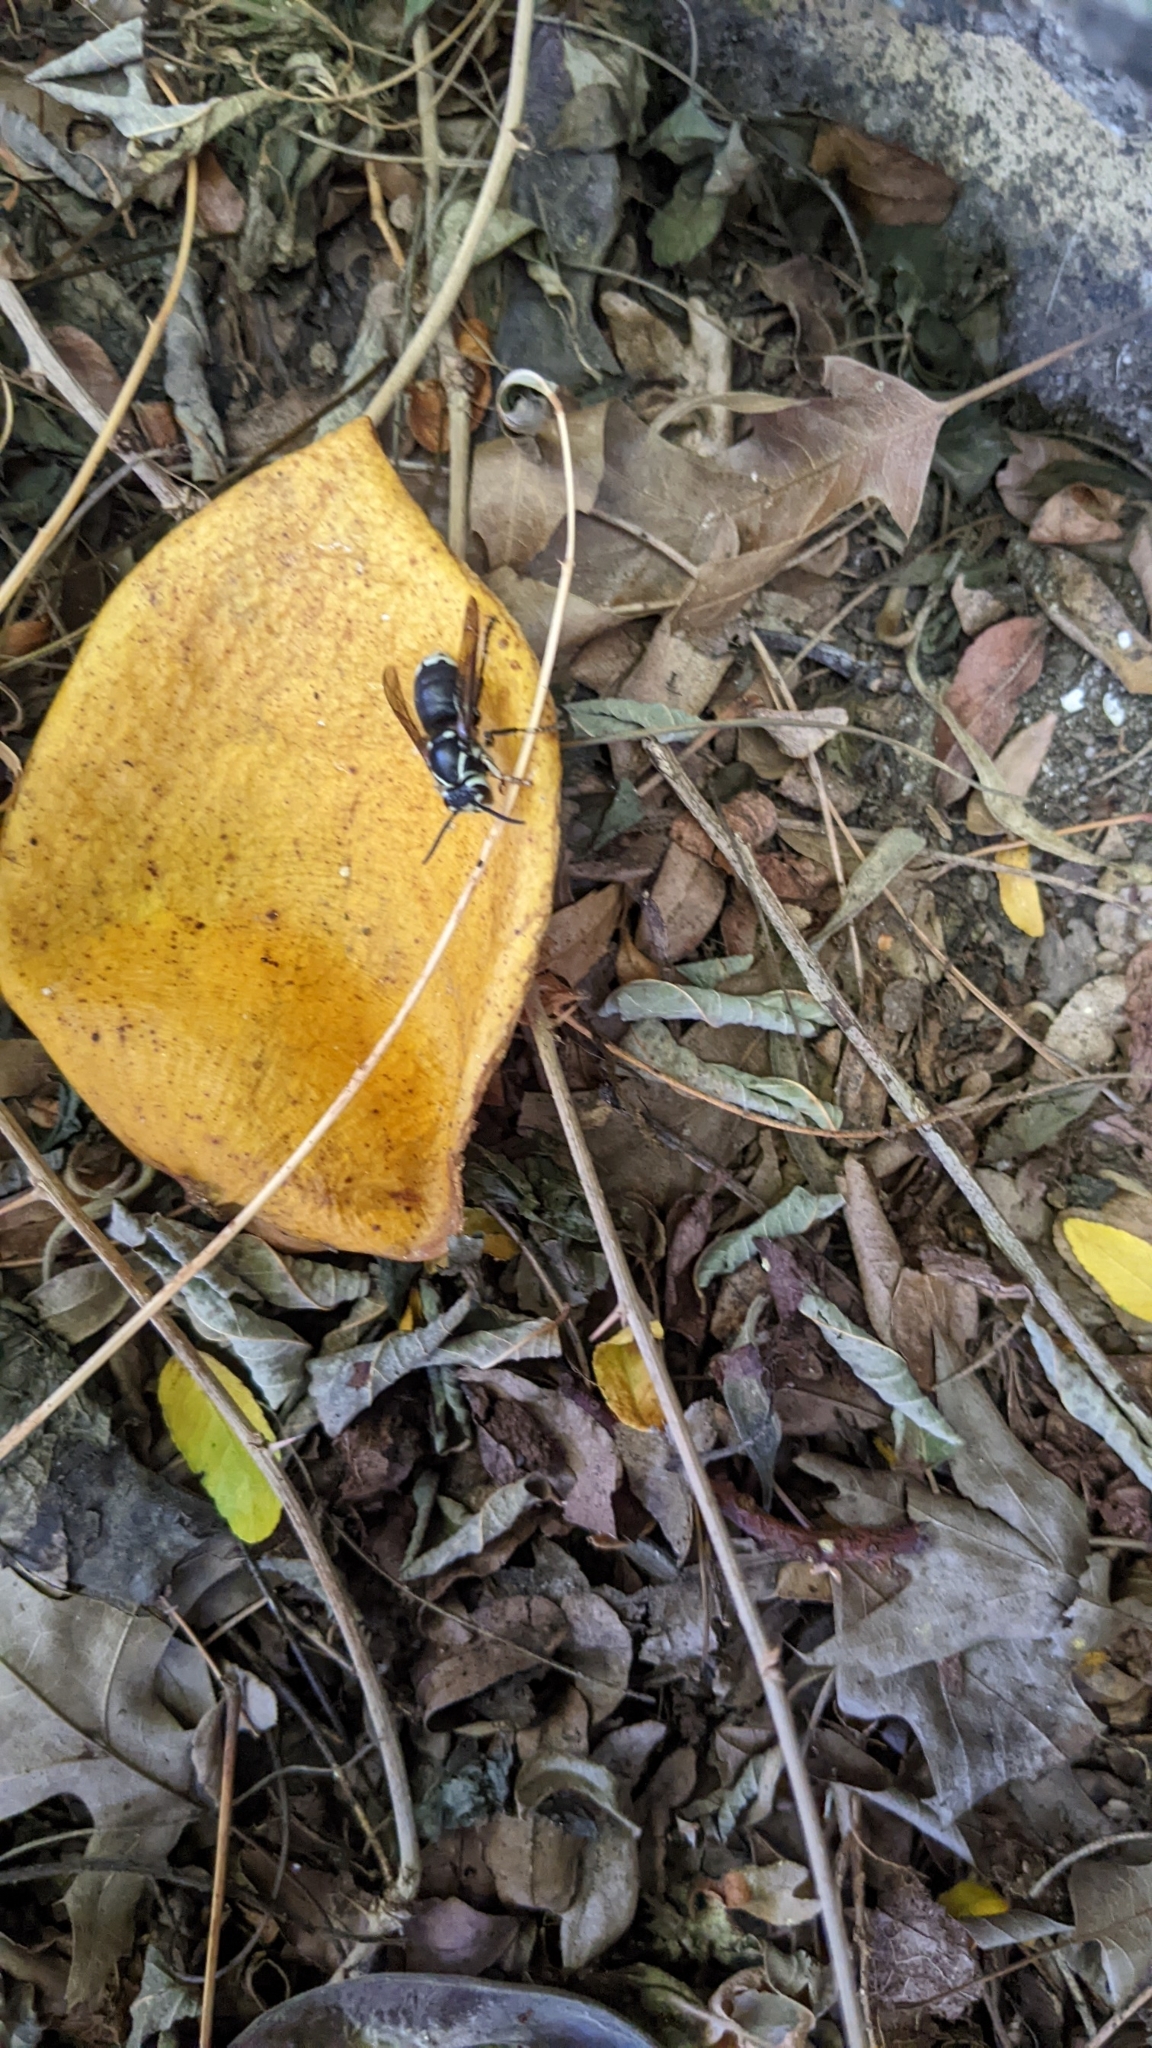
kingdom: Animalia
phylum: Arthropoda
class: Insecta
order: Hymenoptera
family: Vespidae
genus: Dolichovespula
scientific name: Dolichovespula maculata
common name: Bald-faced hornet
